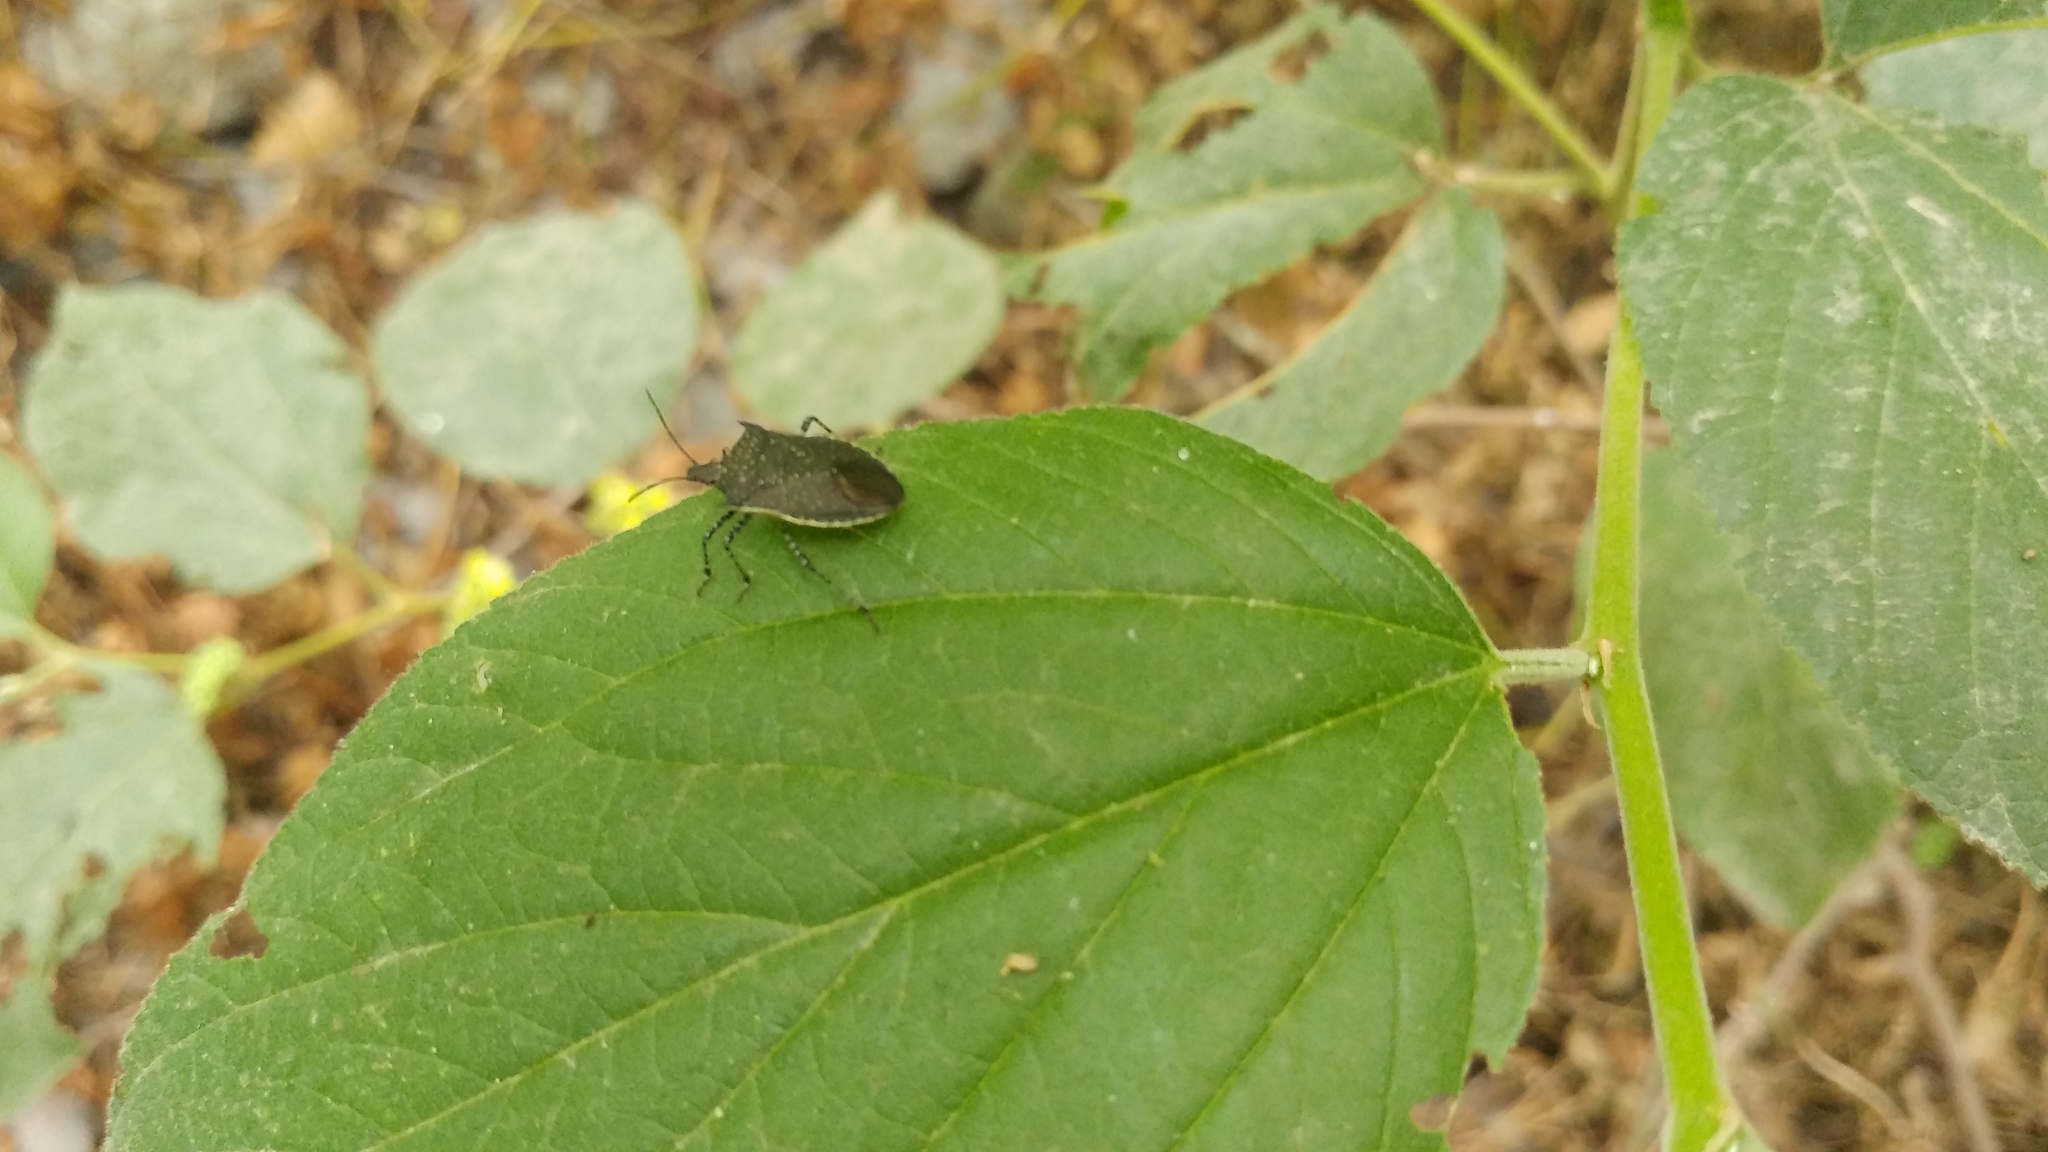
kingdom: Animalia
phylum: Arthropoda
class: Insecta
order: Hemiptera
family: Pentatomidae
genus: Padaeus
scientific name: Padaeus trivittatus
